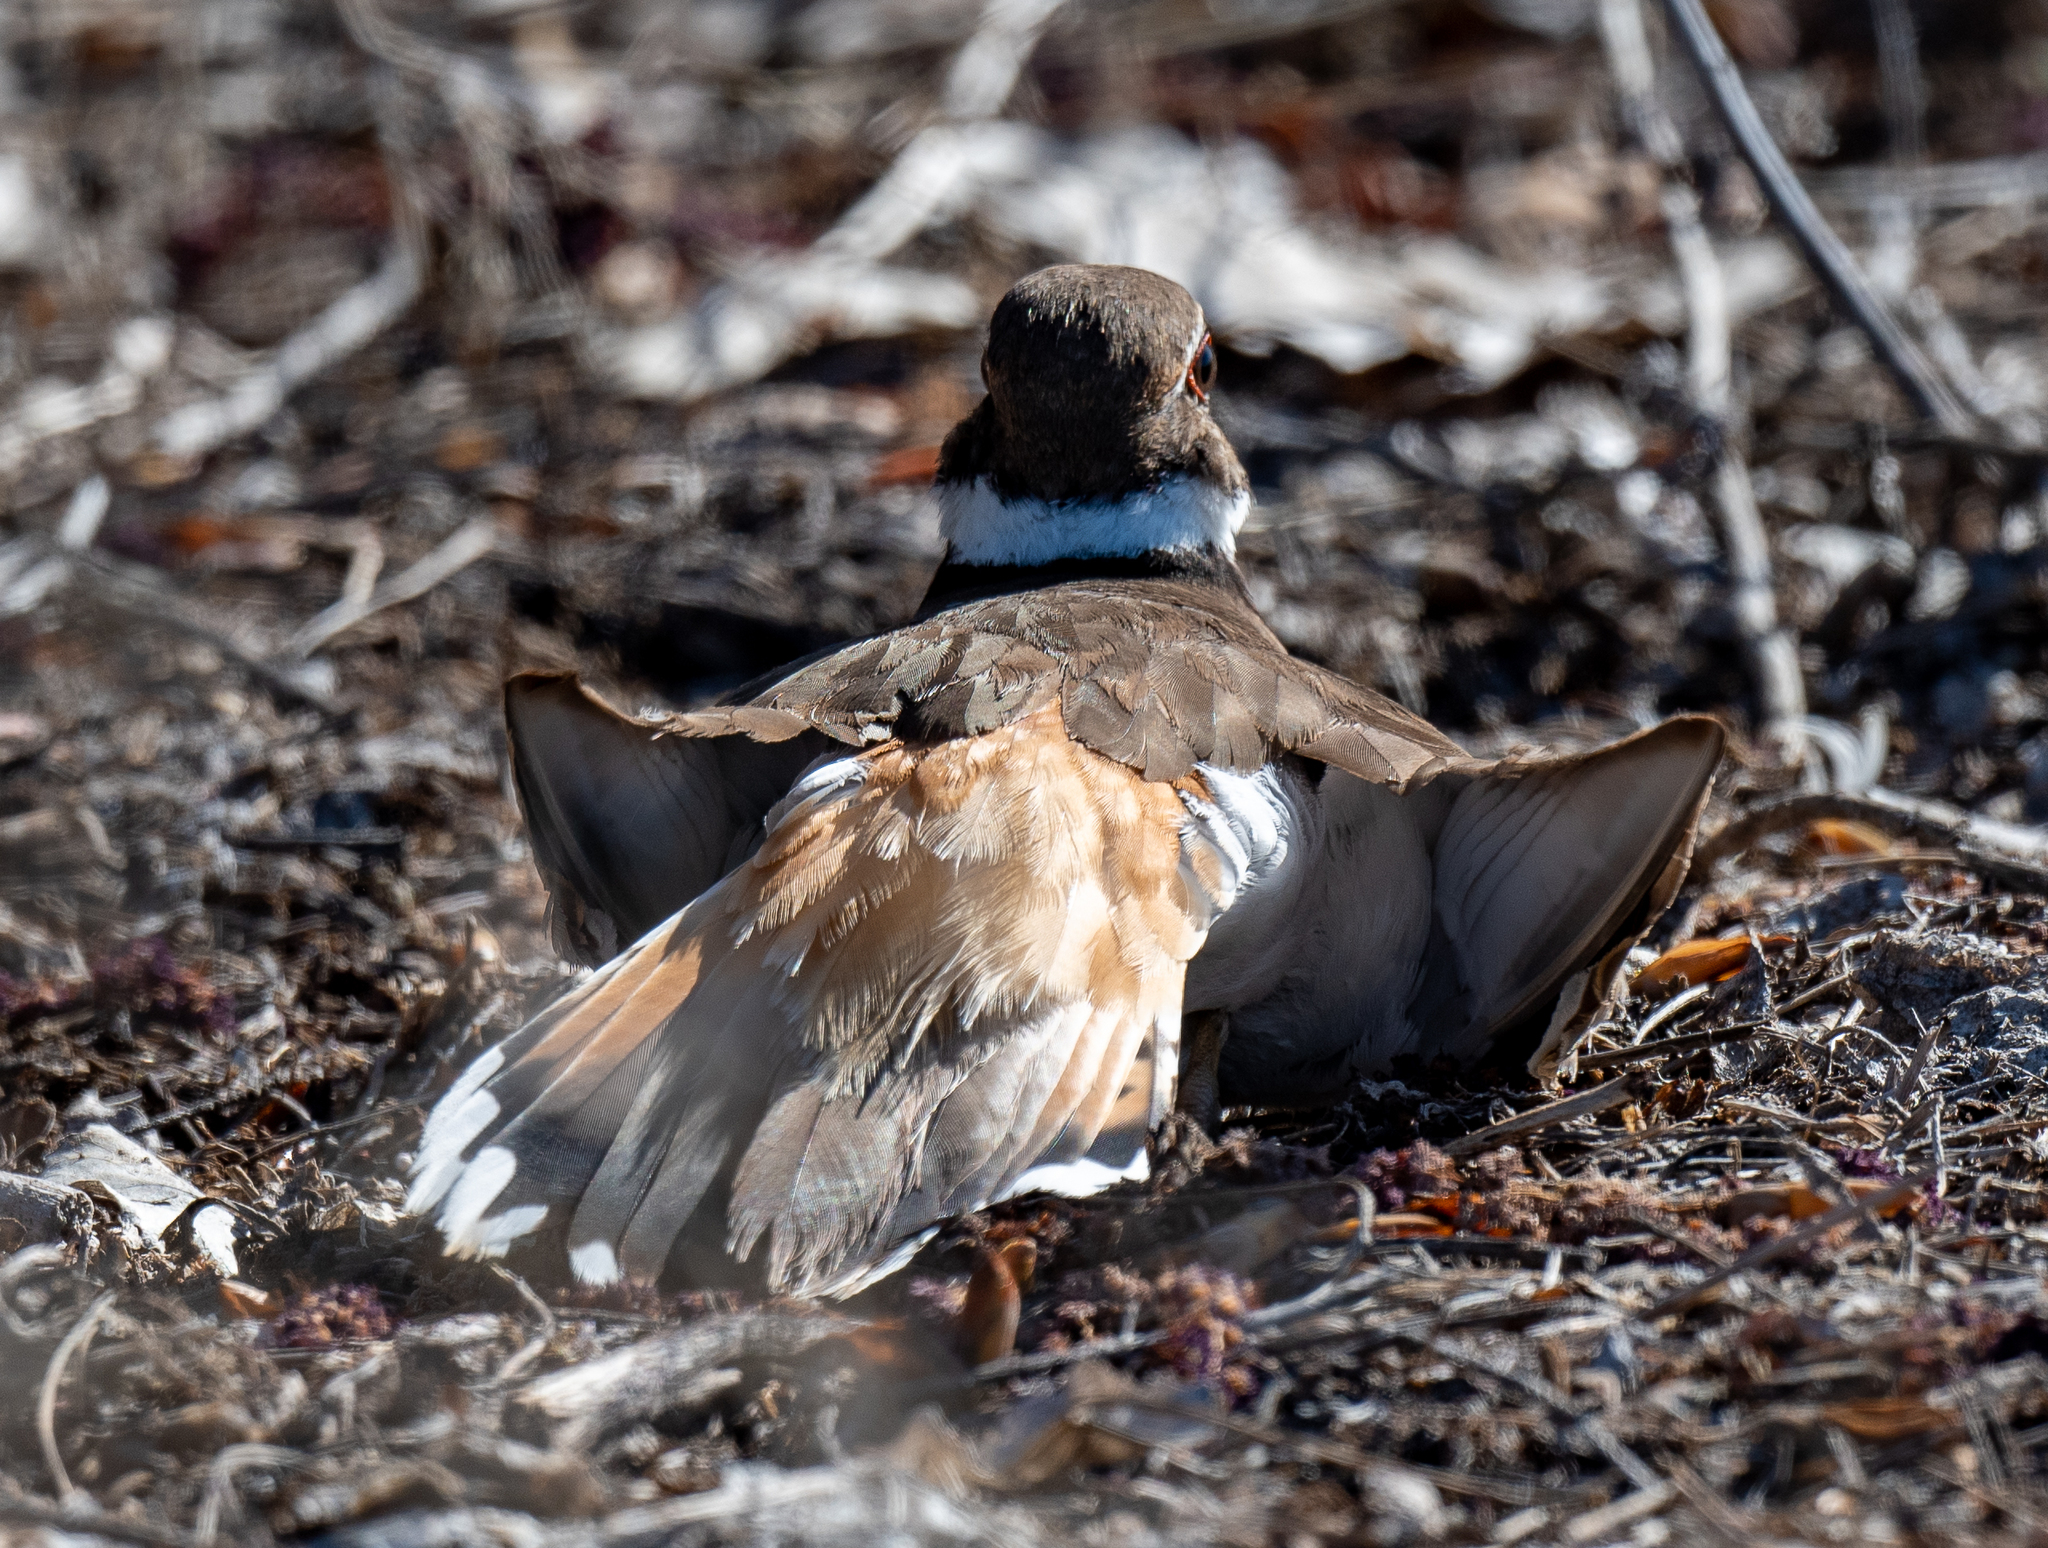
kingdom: Animalia
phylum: Chordata
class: Aves
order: Charadriiformes
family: Charadriidae
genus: Charadrius
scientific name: Charadrius vociferus
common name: Killdeer
